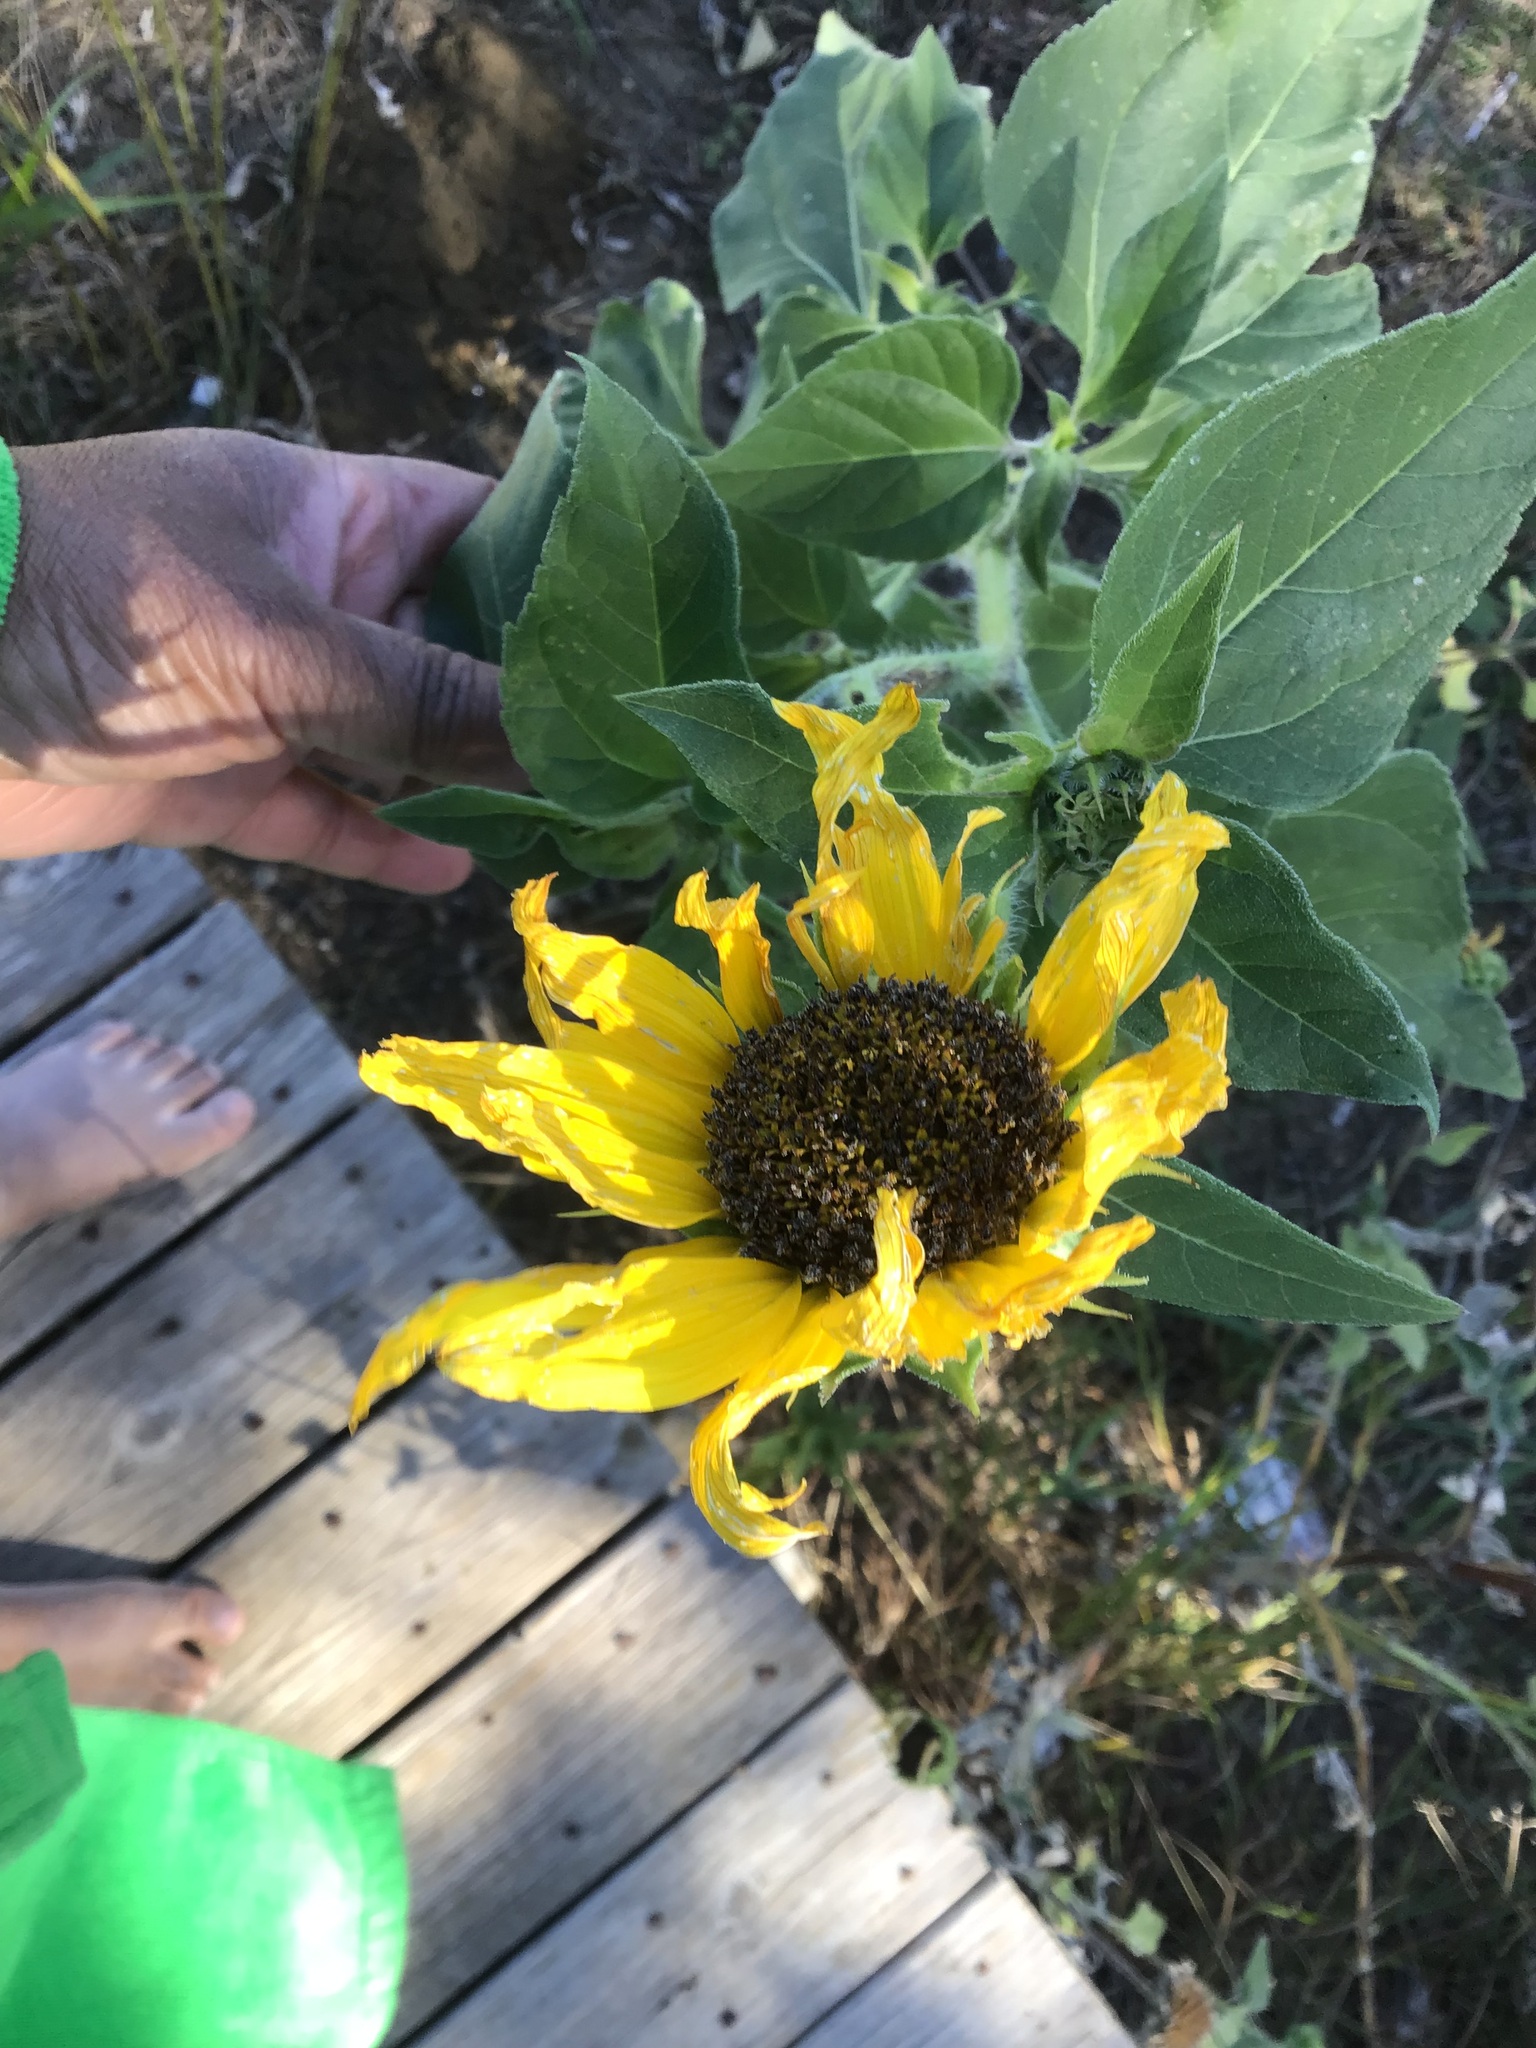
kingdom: Plantae
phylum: Tracheophyta
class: Magnoliopsida
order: Asterales
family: Asteraceae
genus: Helianthus
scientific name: Helianthus annuus
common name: Sunflower
